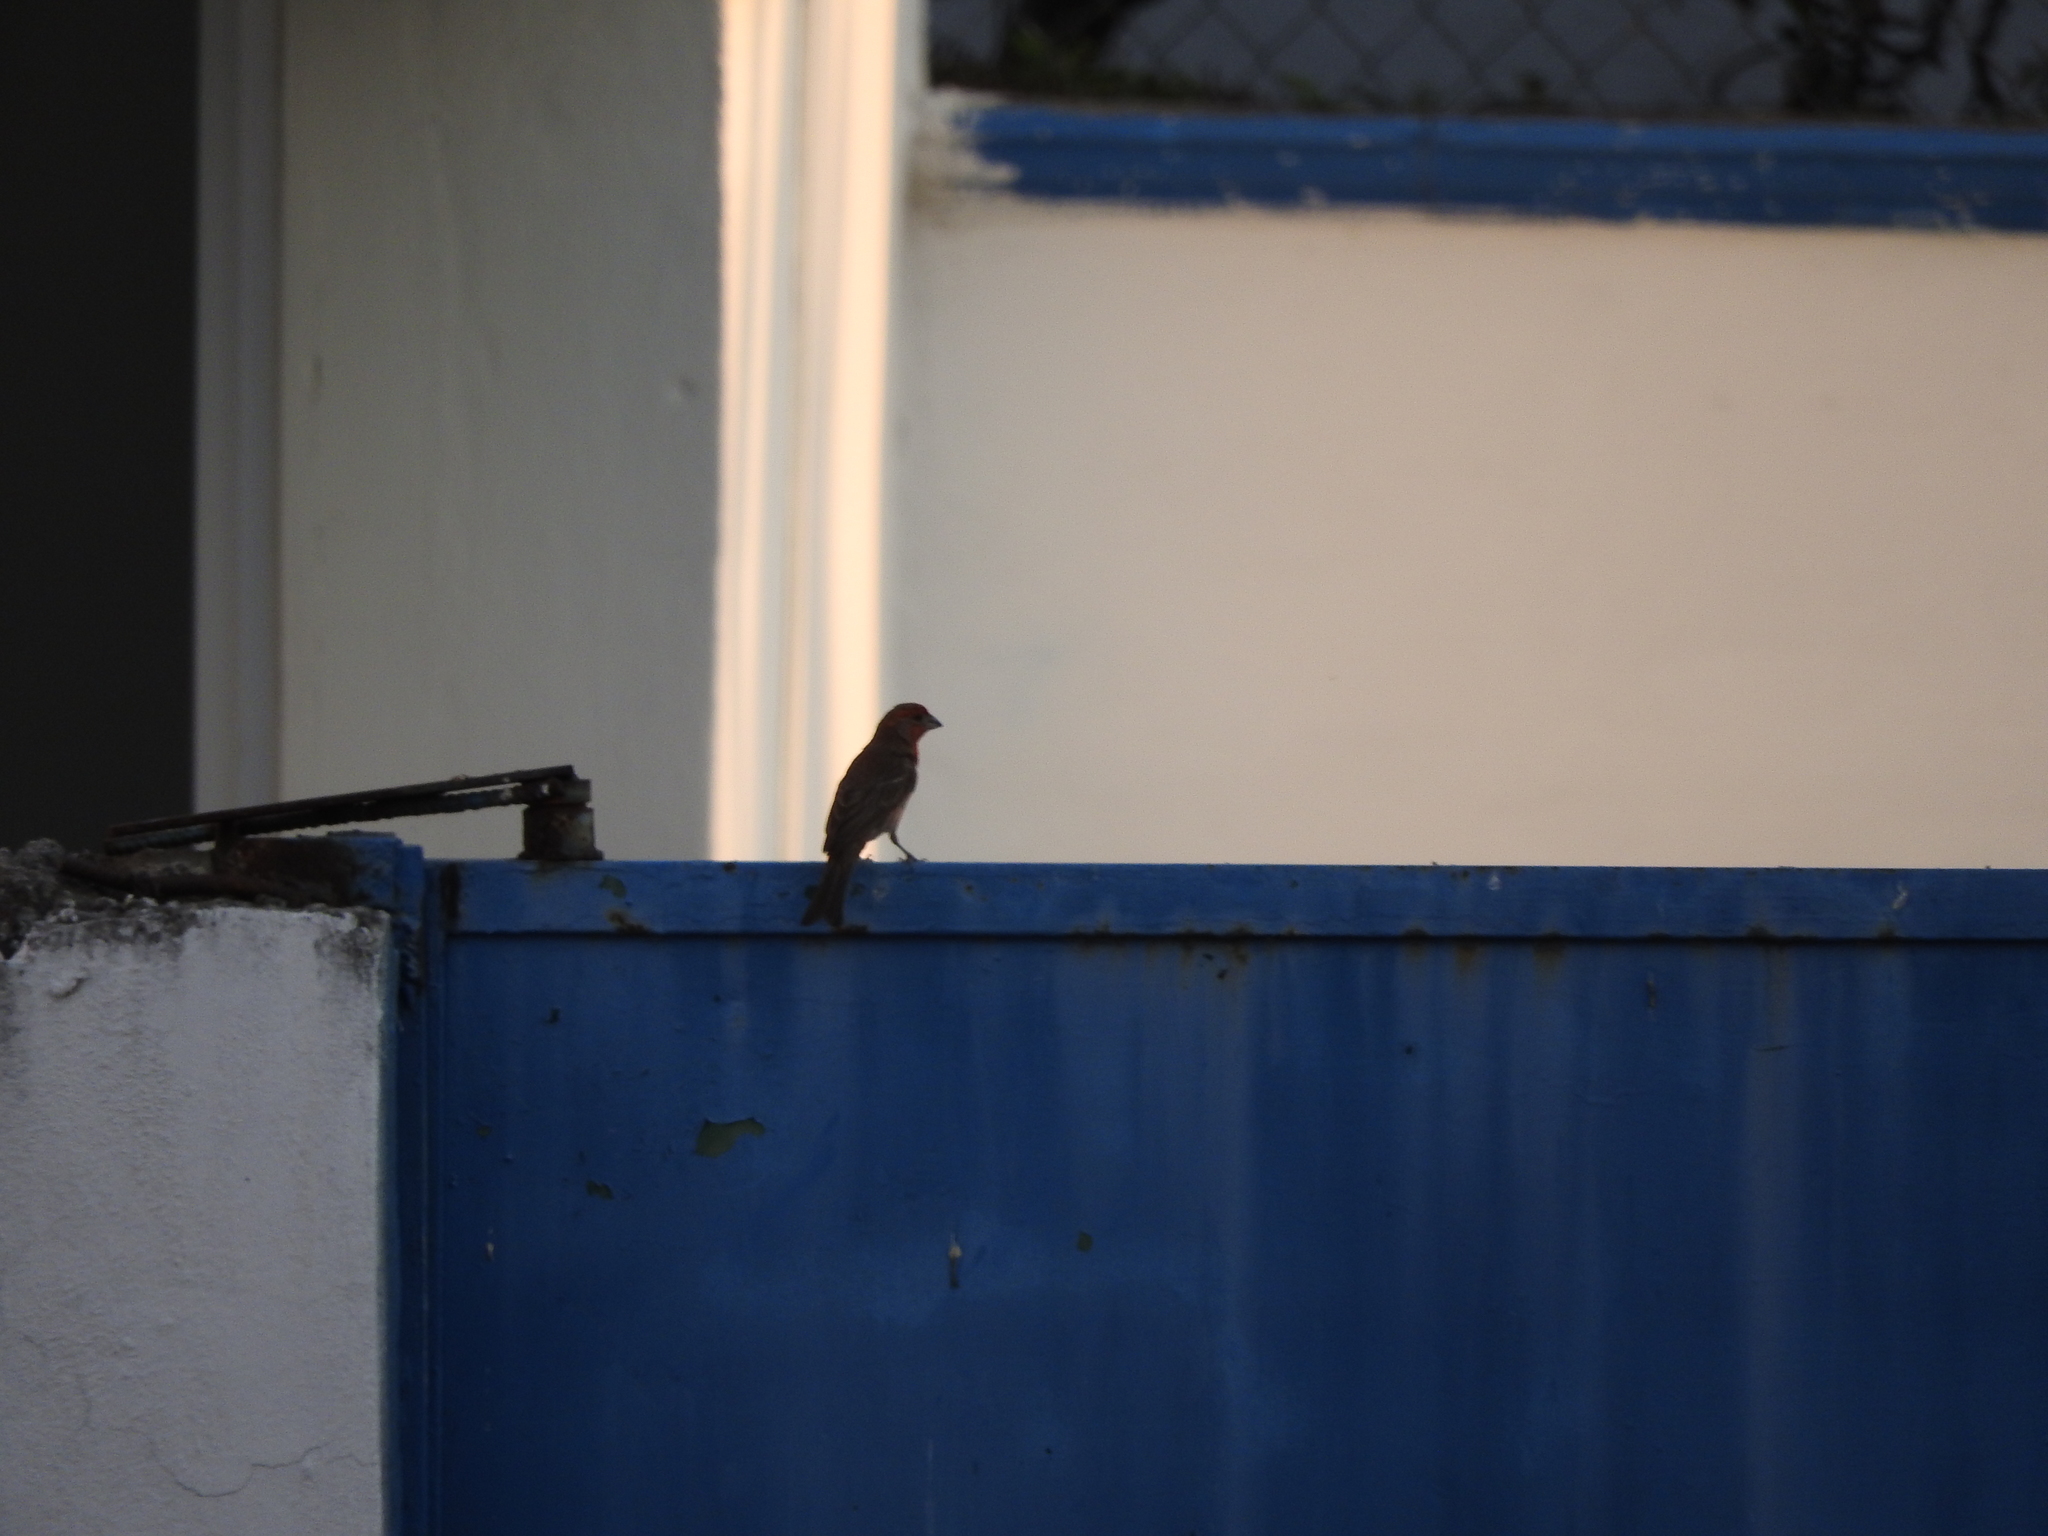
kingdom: Animalia
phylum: Chordata
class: Aves
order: Passeriformes
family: Fringillidae
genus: Haemorhous
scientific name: Haemorhous mexicanus
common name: House finch
